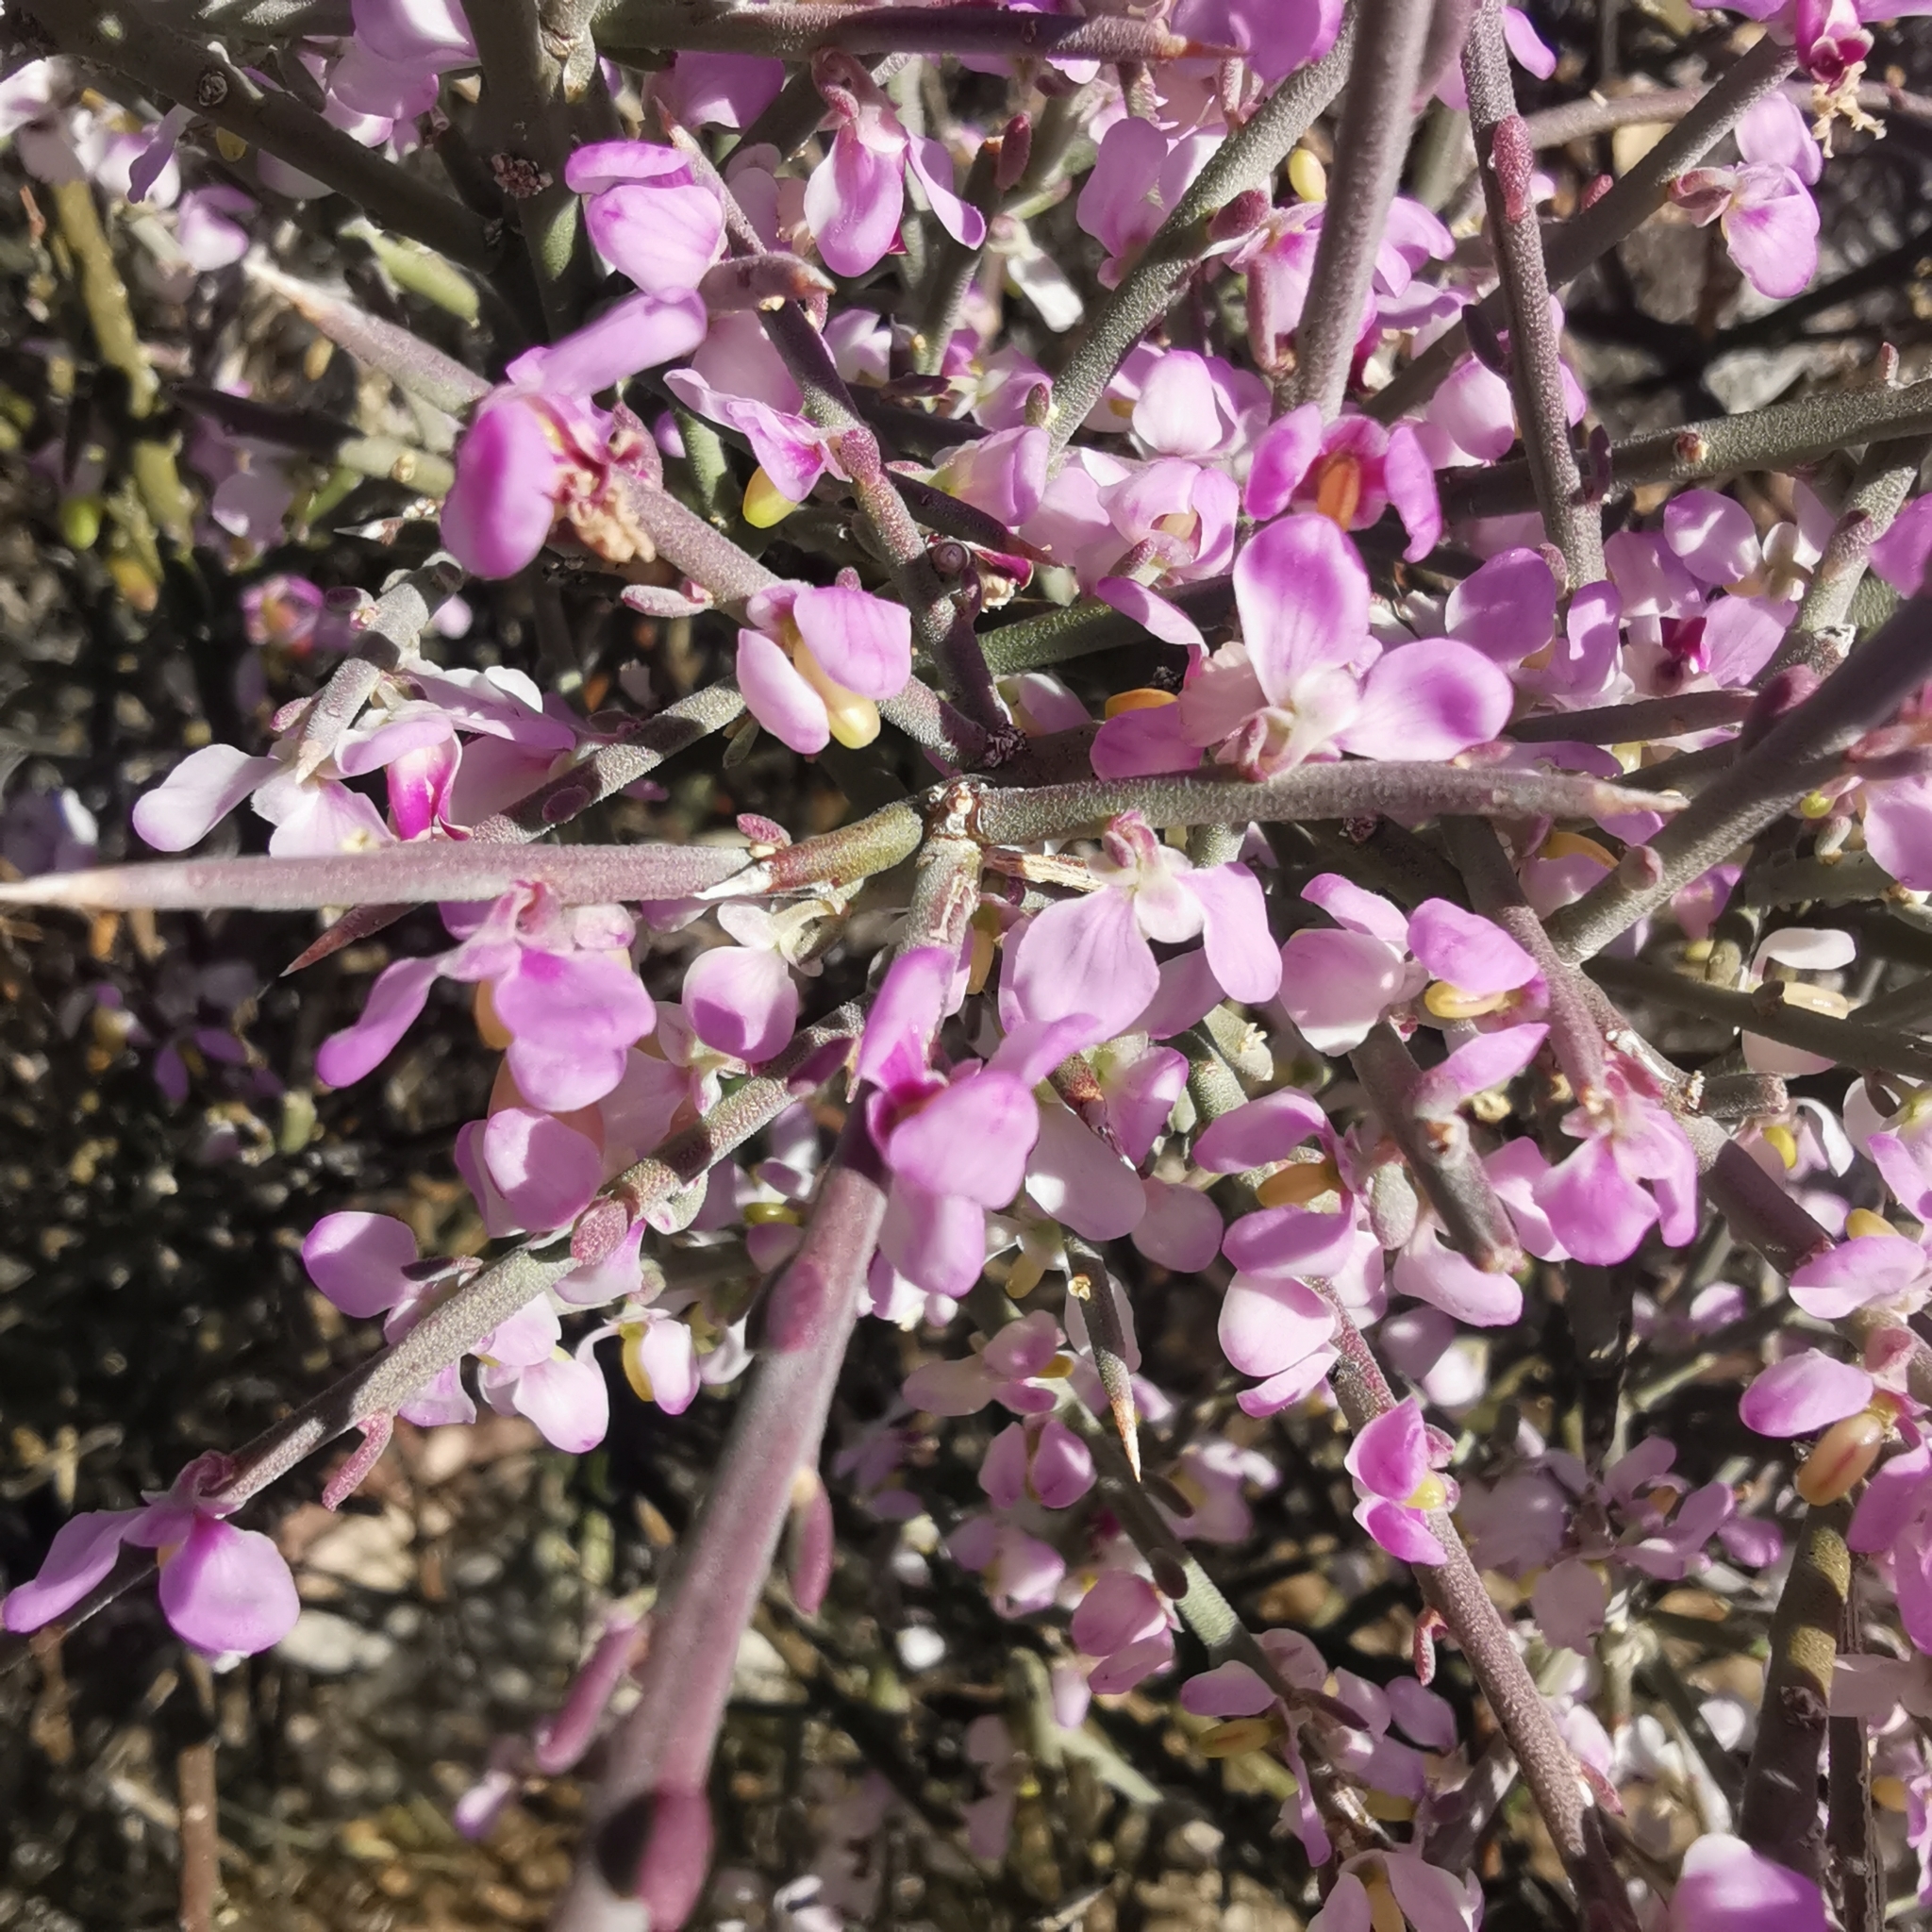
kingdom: Plantae
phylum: Tracheophyta
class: Magnoliopsida
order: Caryophyllales
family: Aizoaceae
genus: Braunsia
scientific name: Braunsia apiculata
